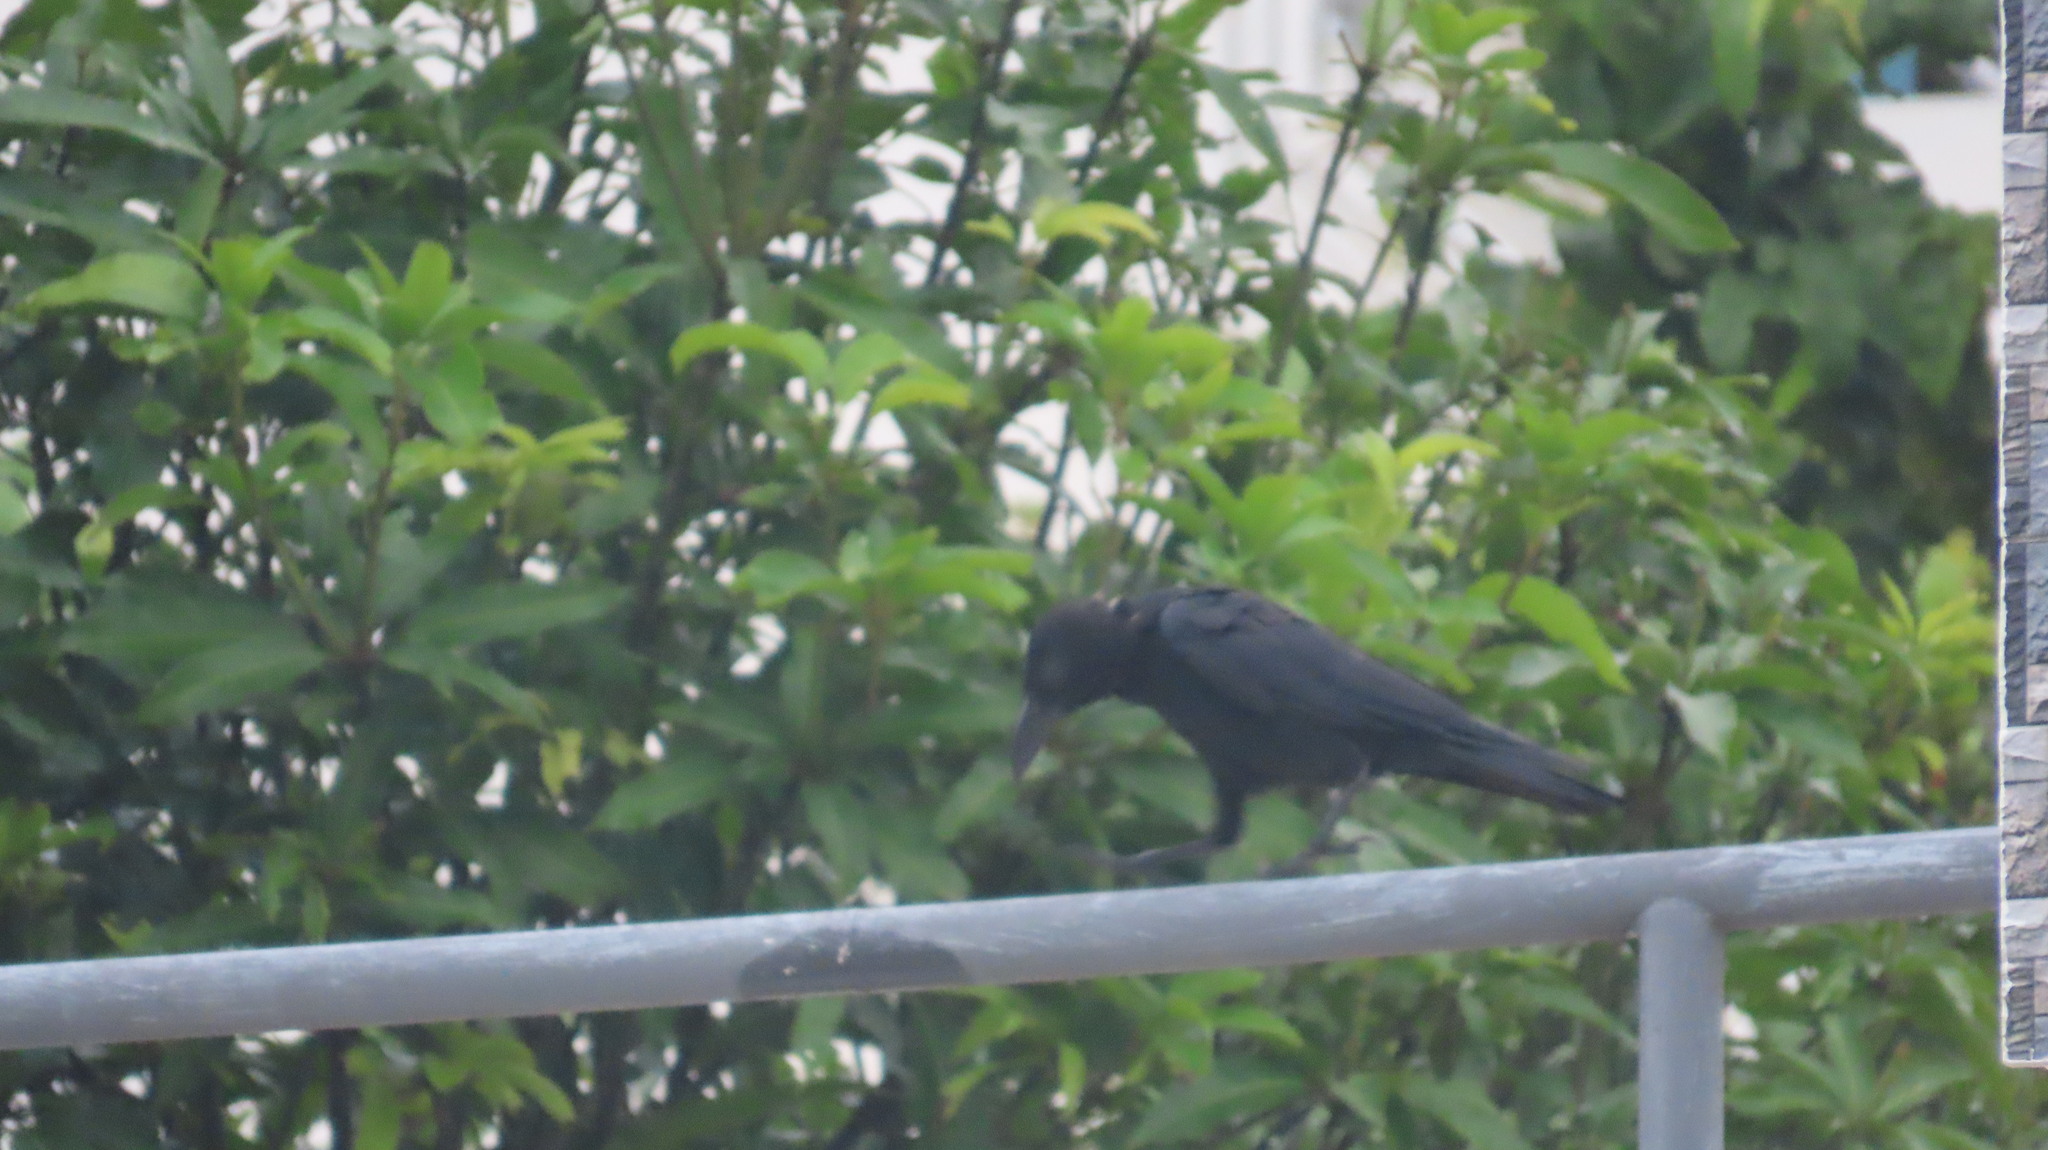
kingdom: Animalia
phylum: Chordata
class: Aves
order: Passeriformes
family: Corvidae
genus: Corvus
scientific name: Corvus macrorhynchos
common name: Large-billed crow
